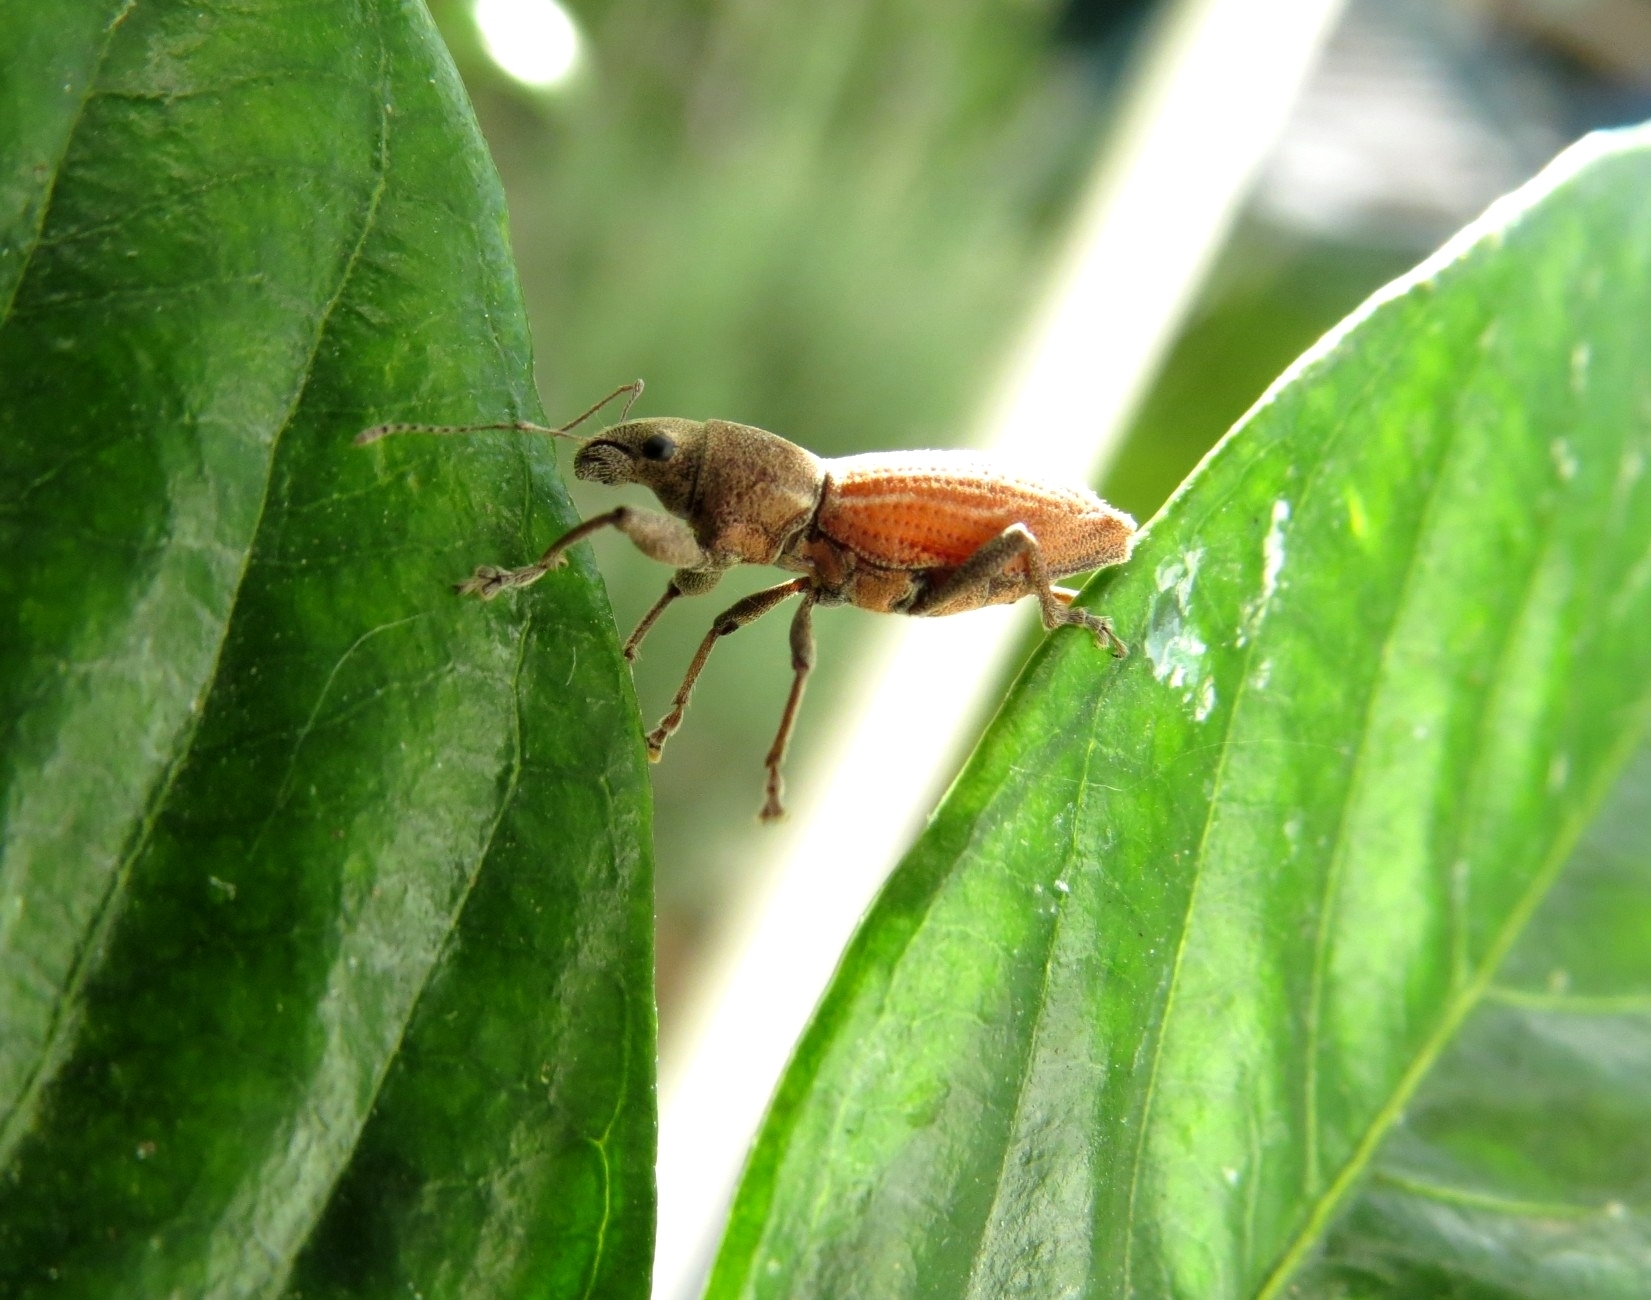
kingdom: Animalia
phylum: Arthropoda
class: Insecta
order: Coleoptera
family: Curculionidae
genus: Naupactus
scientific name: Naupactus dissimulator
